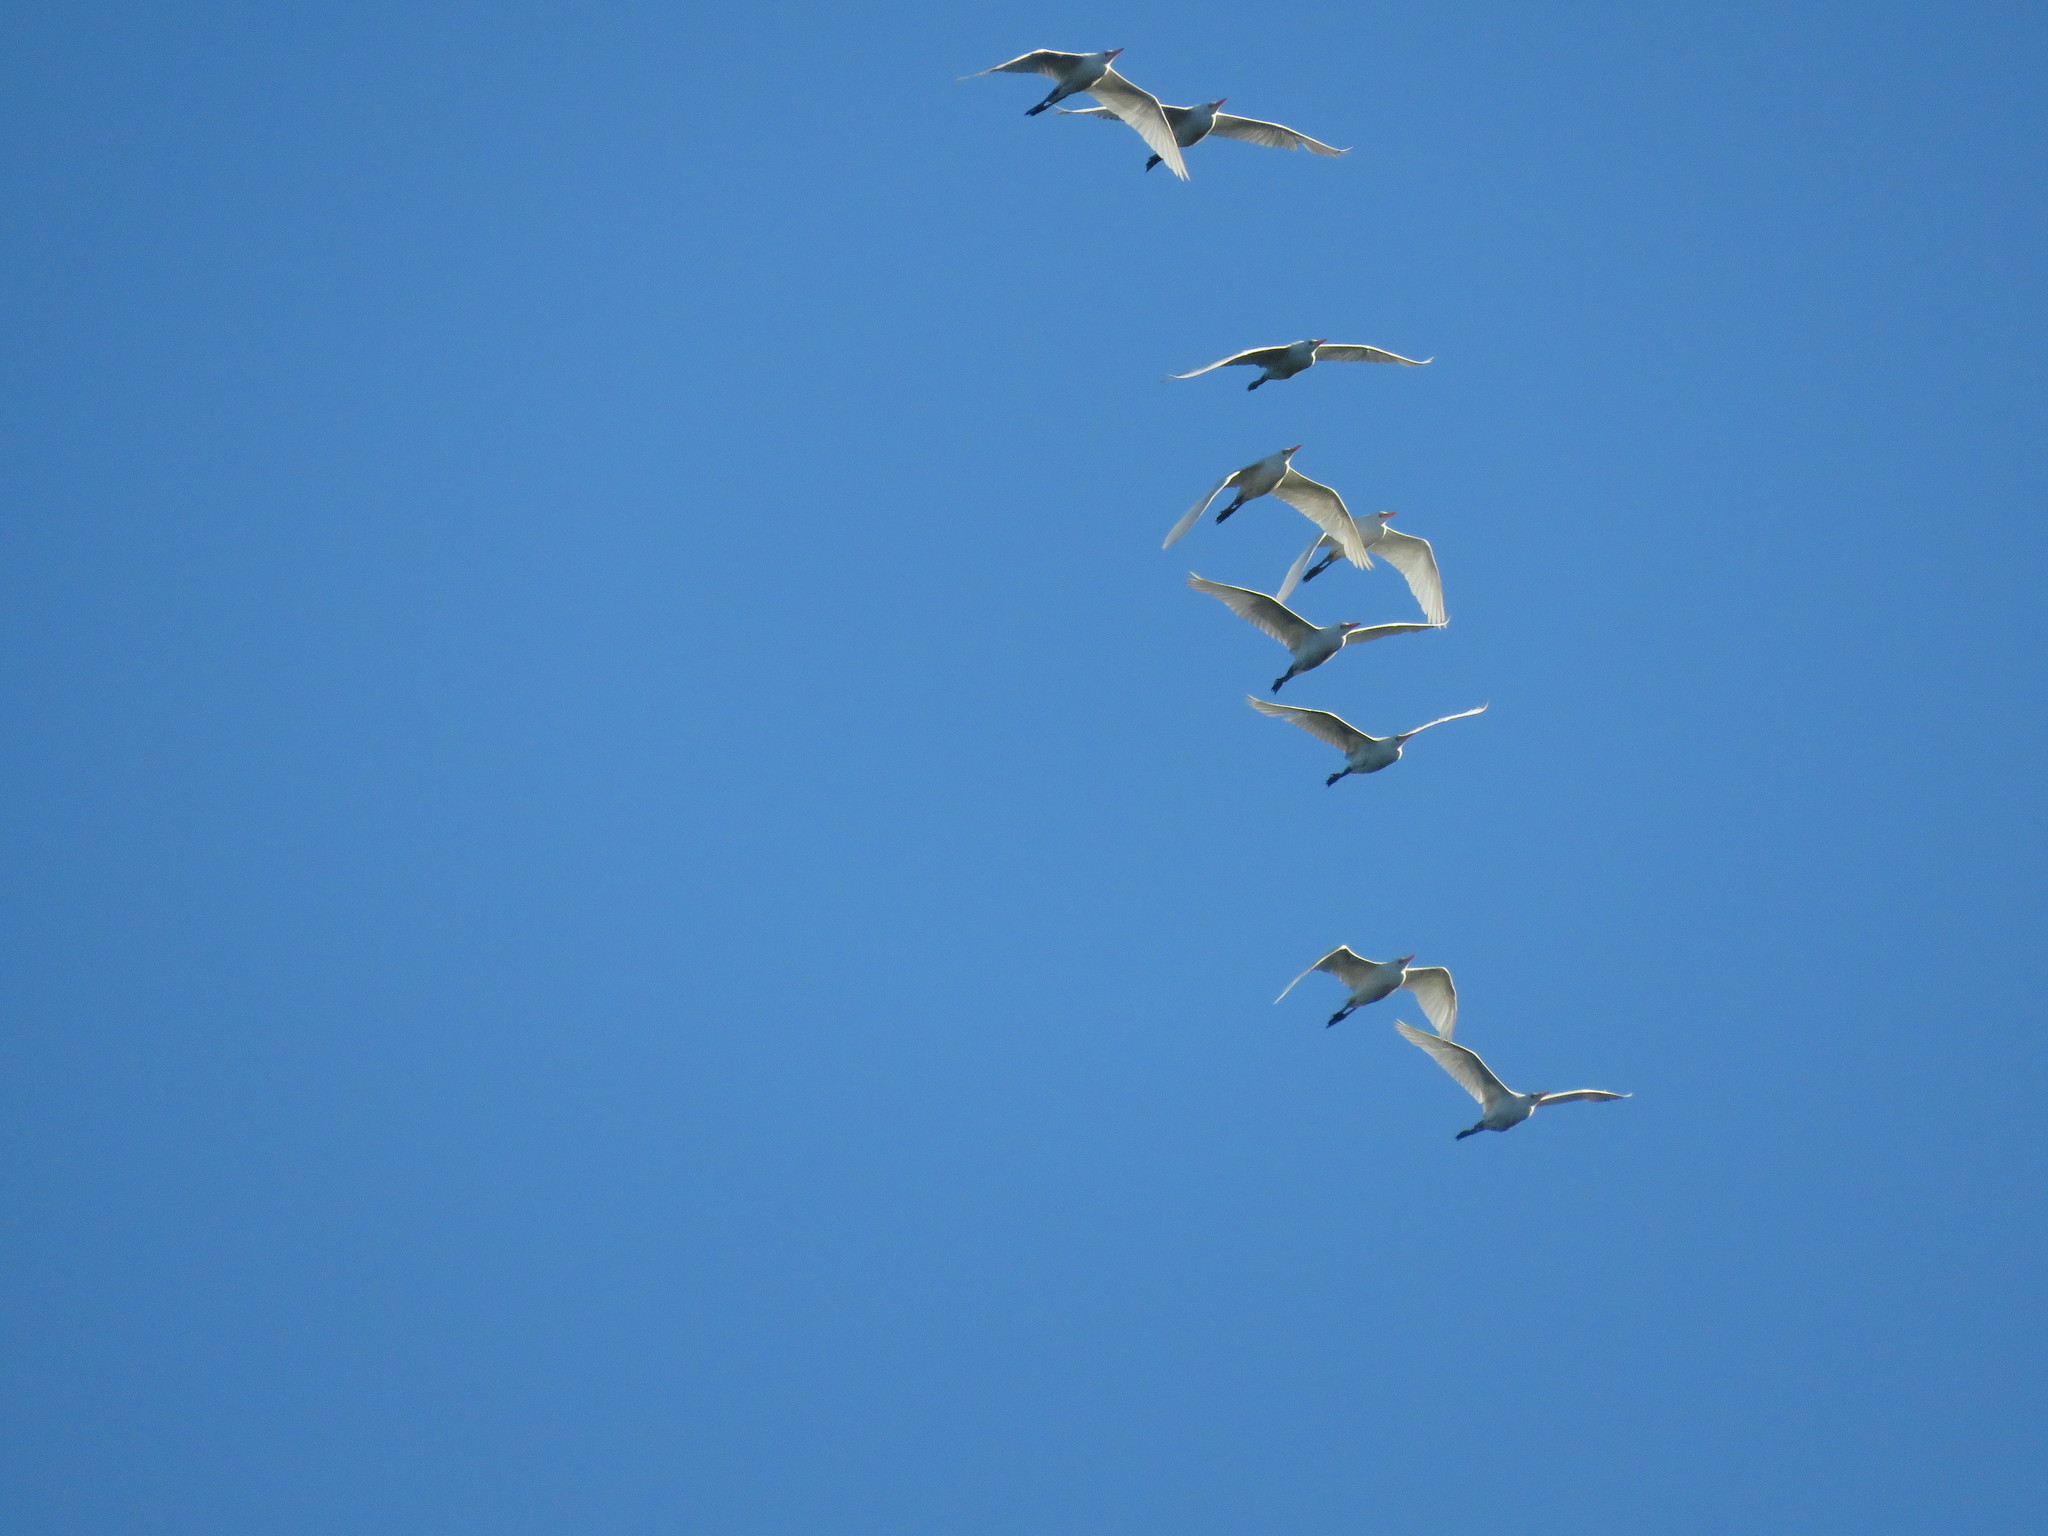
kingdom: Animalia
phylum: Chordata
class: Aves
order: Pelecaniformes
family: Ardeidae
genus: Bubulcus
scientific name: Bubulcus ibis
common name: Cattle egret
